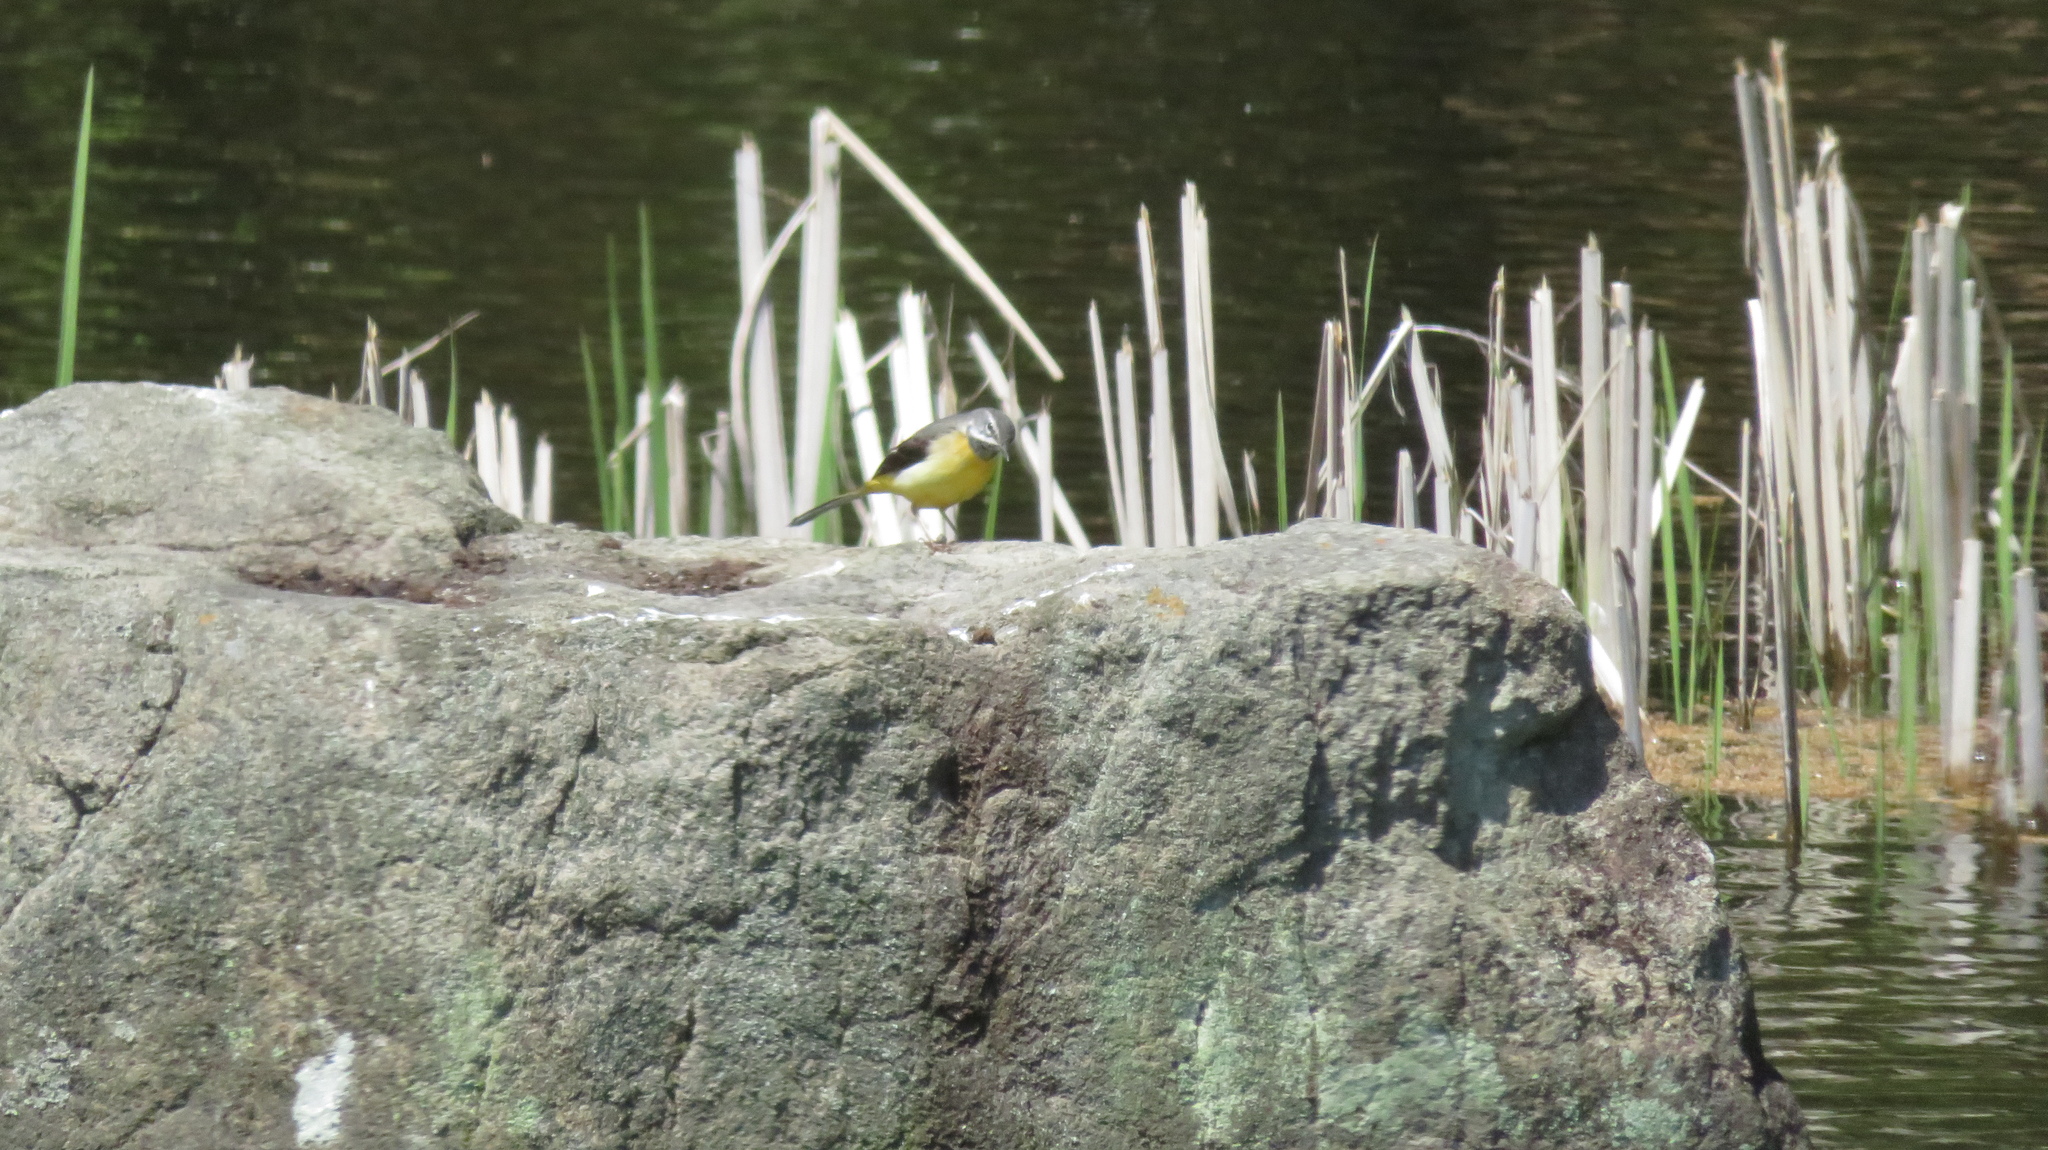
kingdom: Animalia
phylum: Chordata
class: Aves
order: Passeriformes
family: Motacillidae
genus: Motacilla
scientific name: Motacilla cinerea
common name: Grey wagtail
